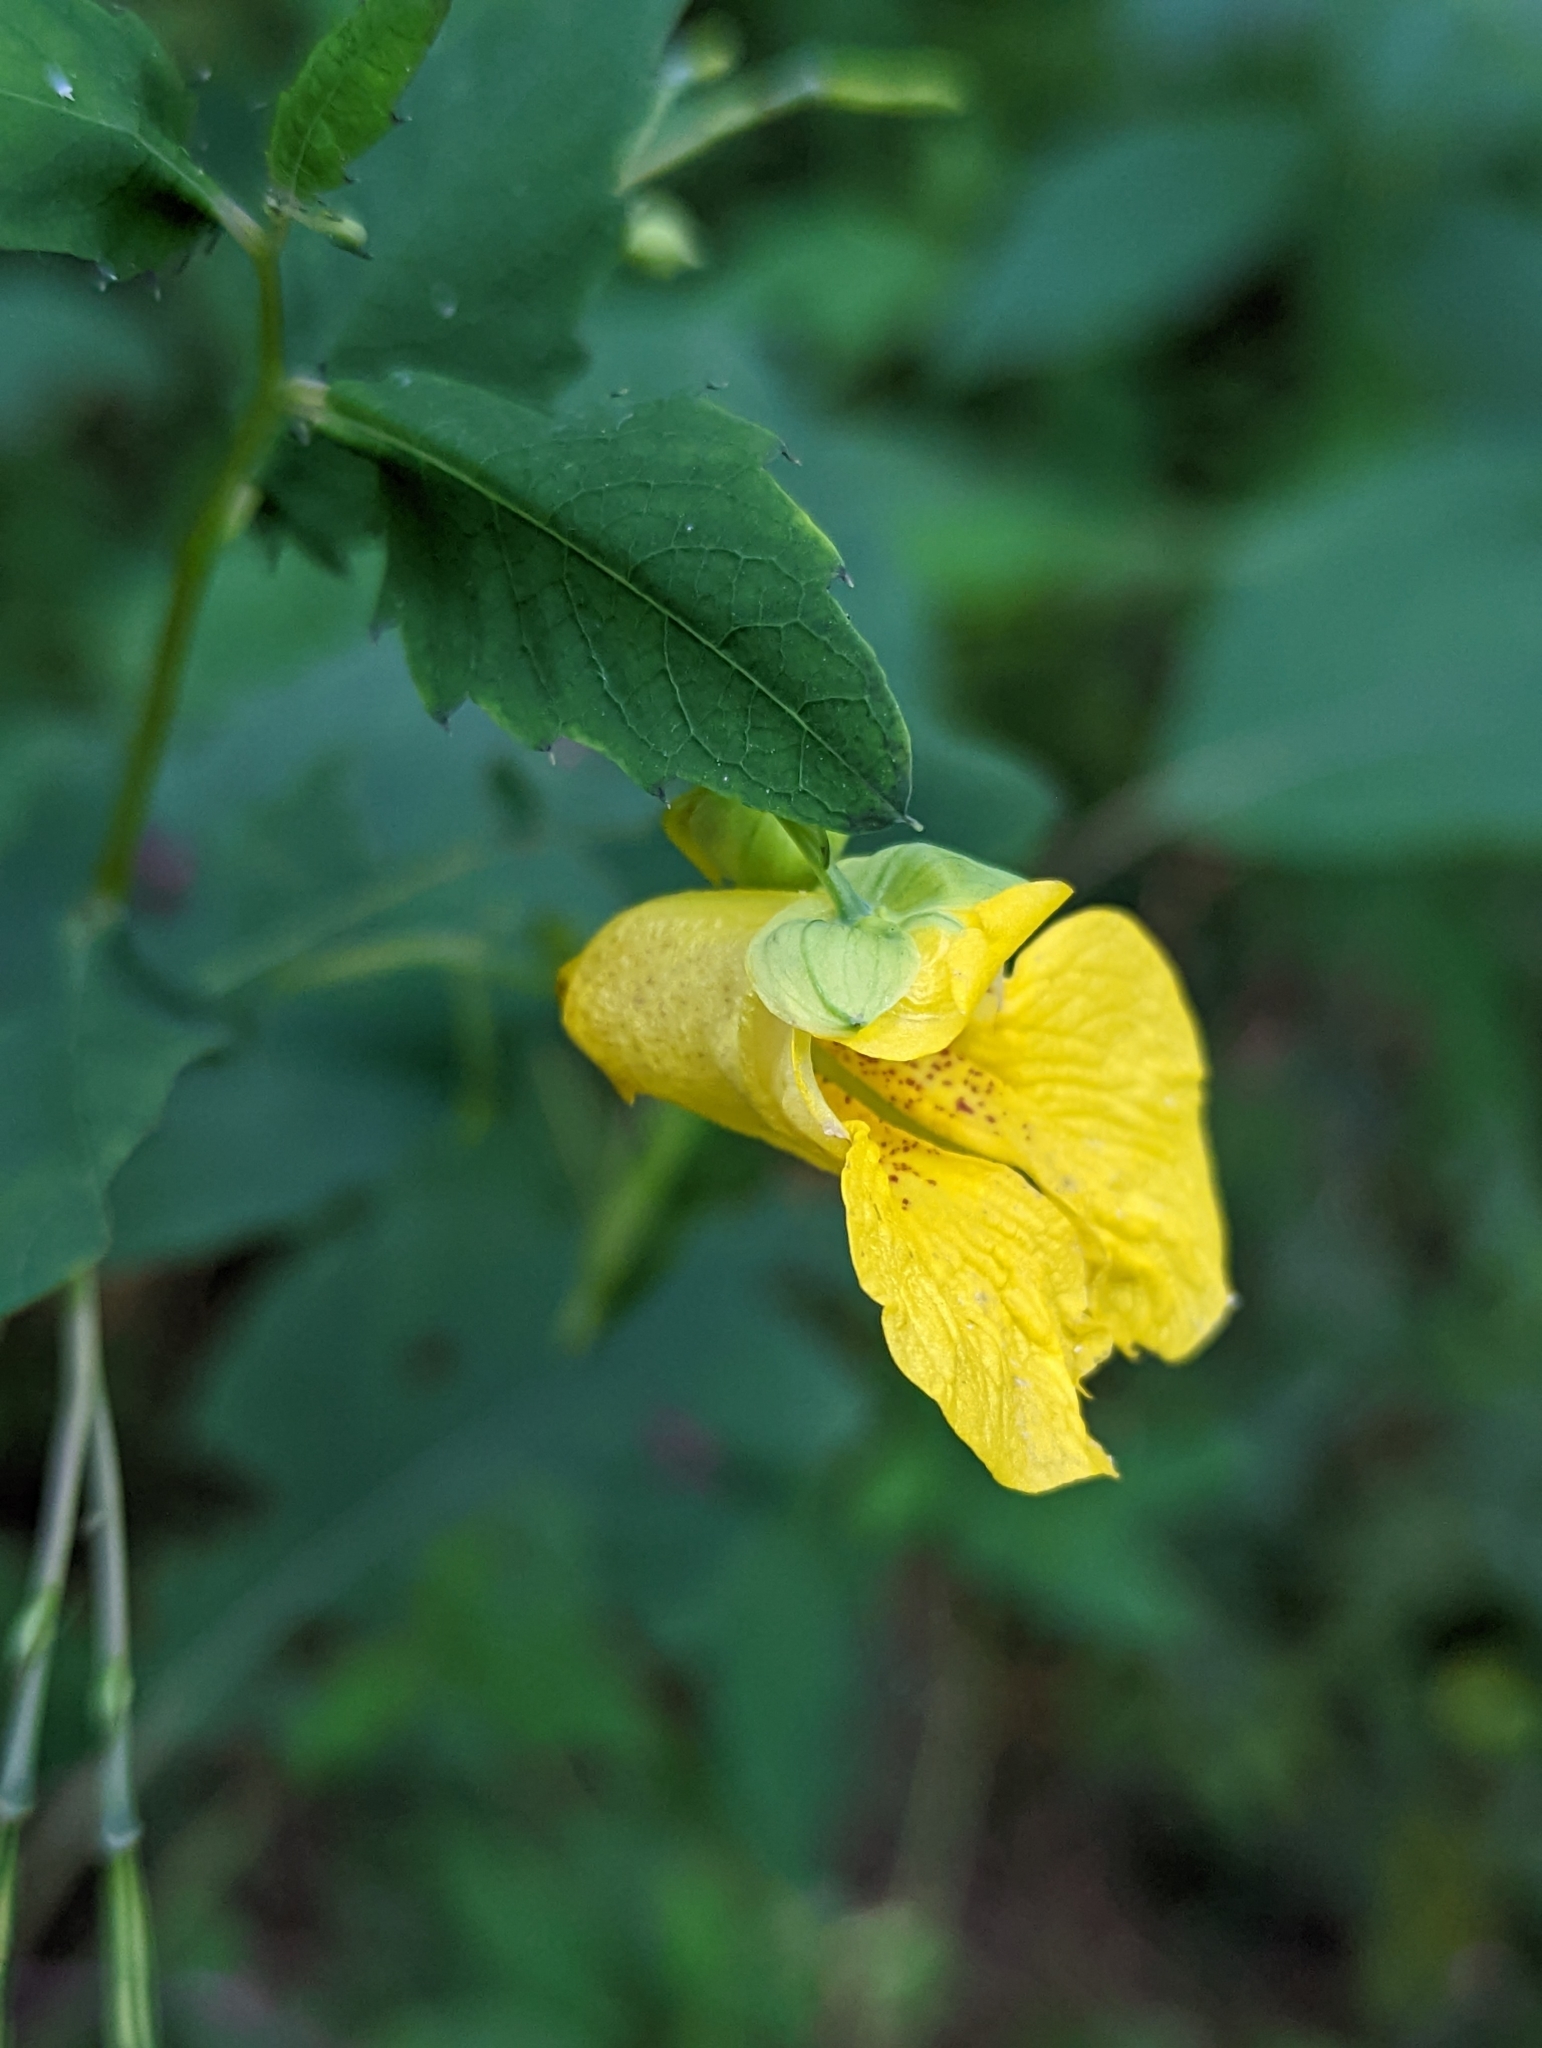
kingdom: Plantae
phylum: Tracheophyta
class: Magnoliopsida
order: Ericales
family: Balsaminaceae
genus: Impatiens
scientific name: Impatiens pallida
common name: Pale snapweed
